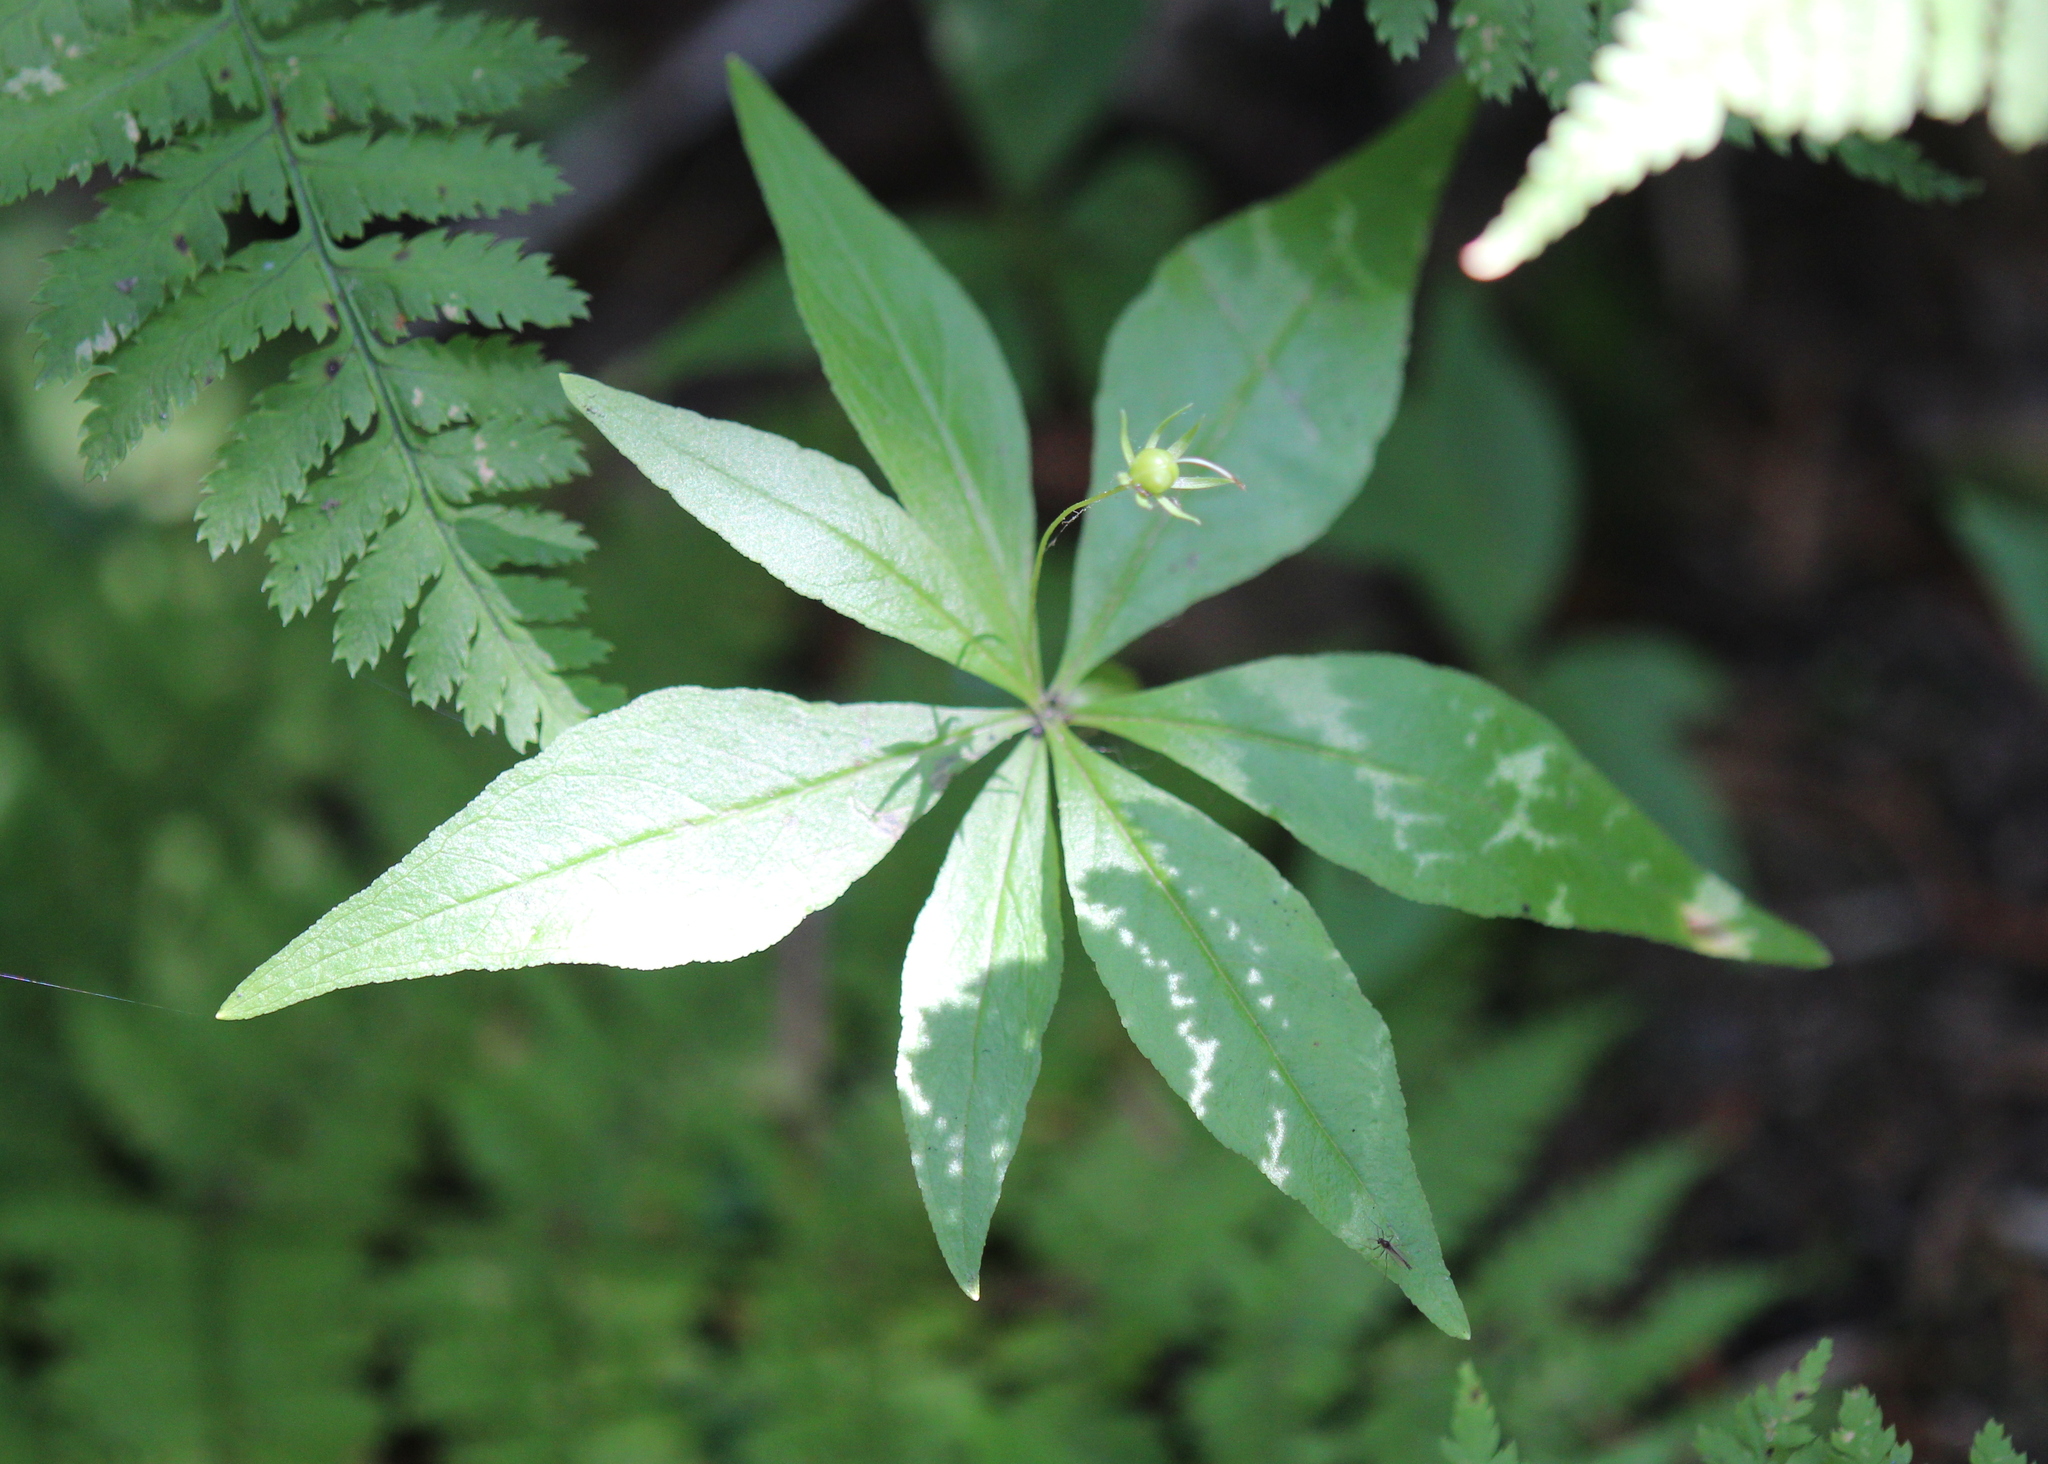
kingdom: Plantae
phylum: Tracheophyta
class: Magnoliopsida
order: Ericales
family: Primulaceae
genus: Lysimachia
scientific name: Lysimachia borealis
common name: American starflower
